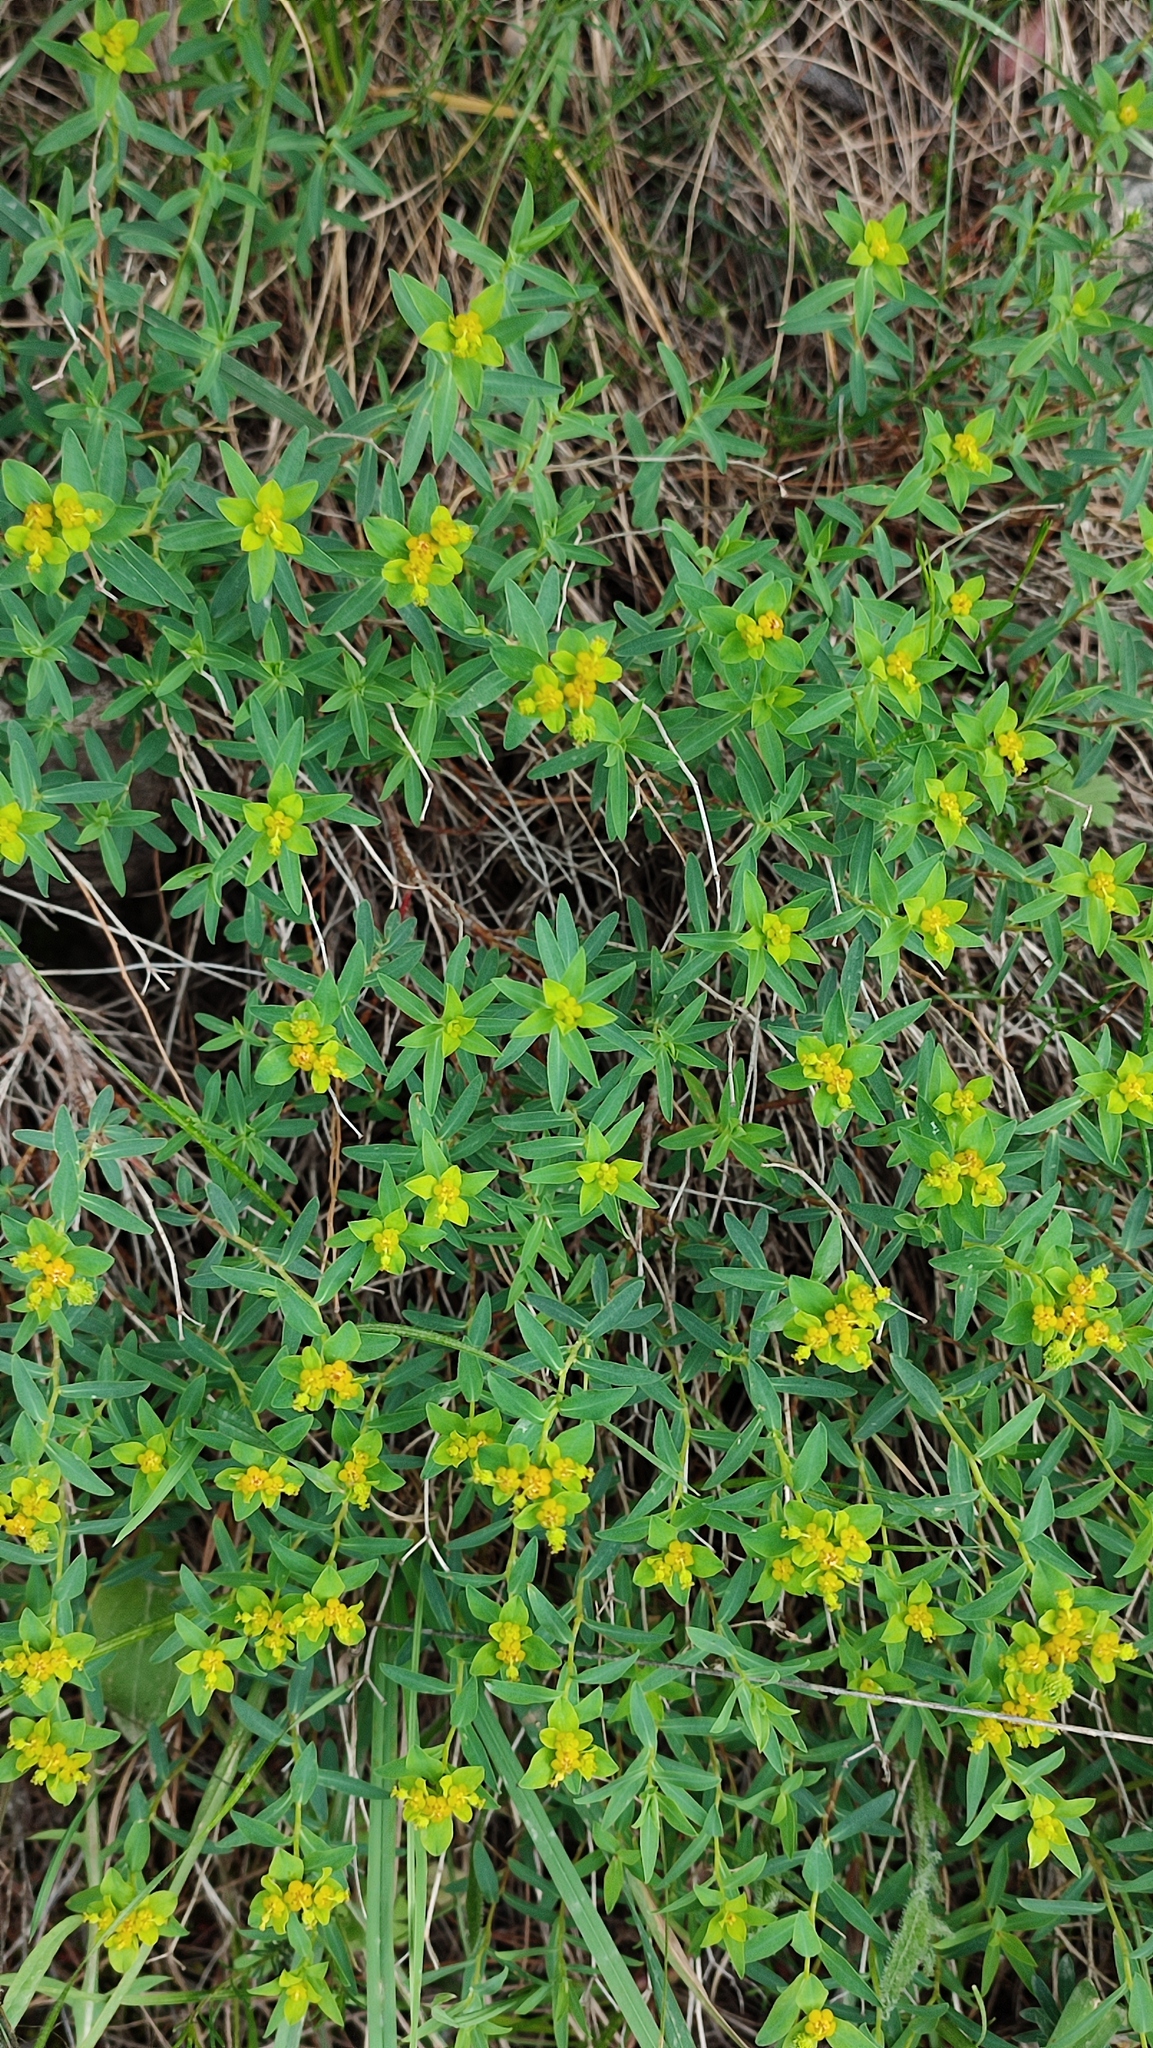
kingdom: Plantae
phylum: Tracheophyta
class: Magnoliopsida
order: Malpighiales
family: Euphorbiaceae
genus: Euphorbia
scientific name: Euphorbia spinosa
